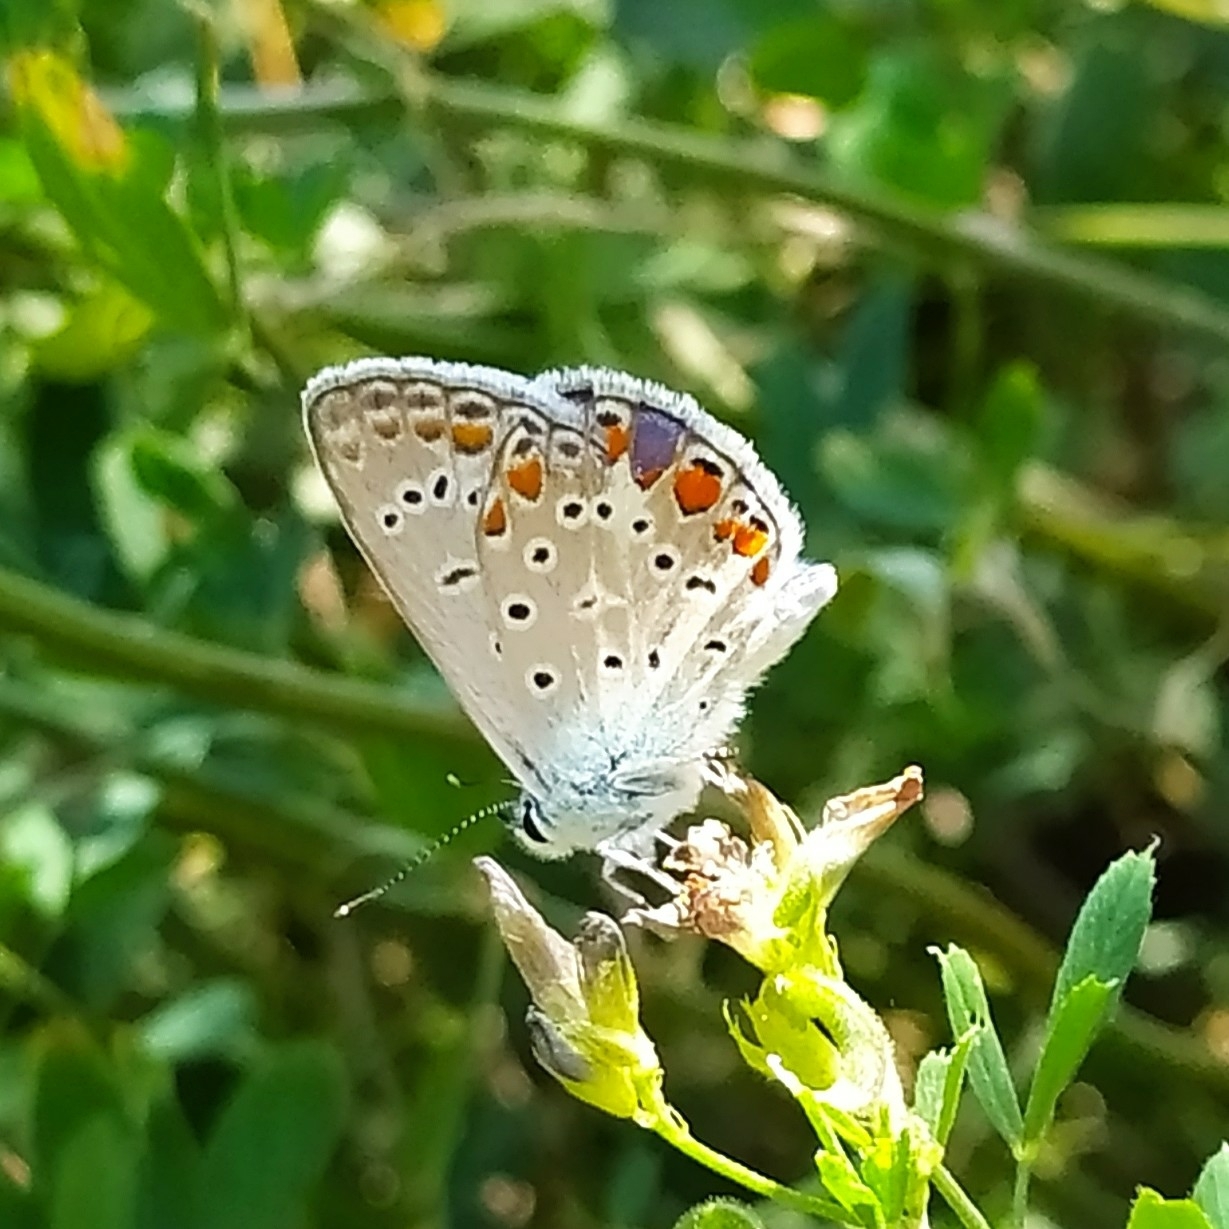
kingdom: Animalia
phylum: Arthropoda
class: Insecta
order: Lepidoptera
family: Lycaenidae
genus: Polyommatus
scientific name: Polyommatus icarus
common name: Common blue
